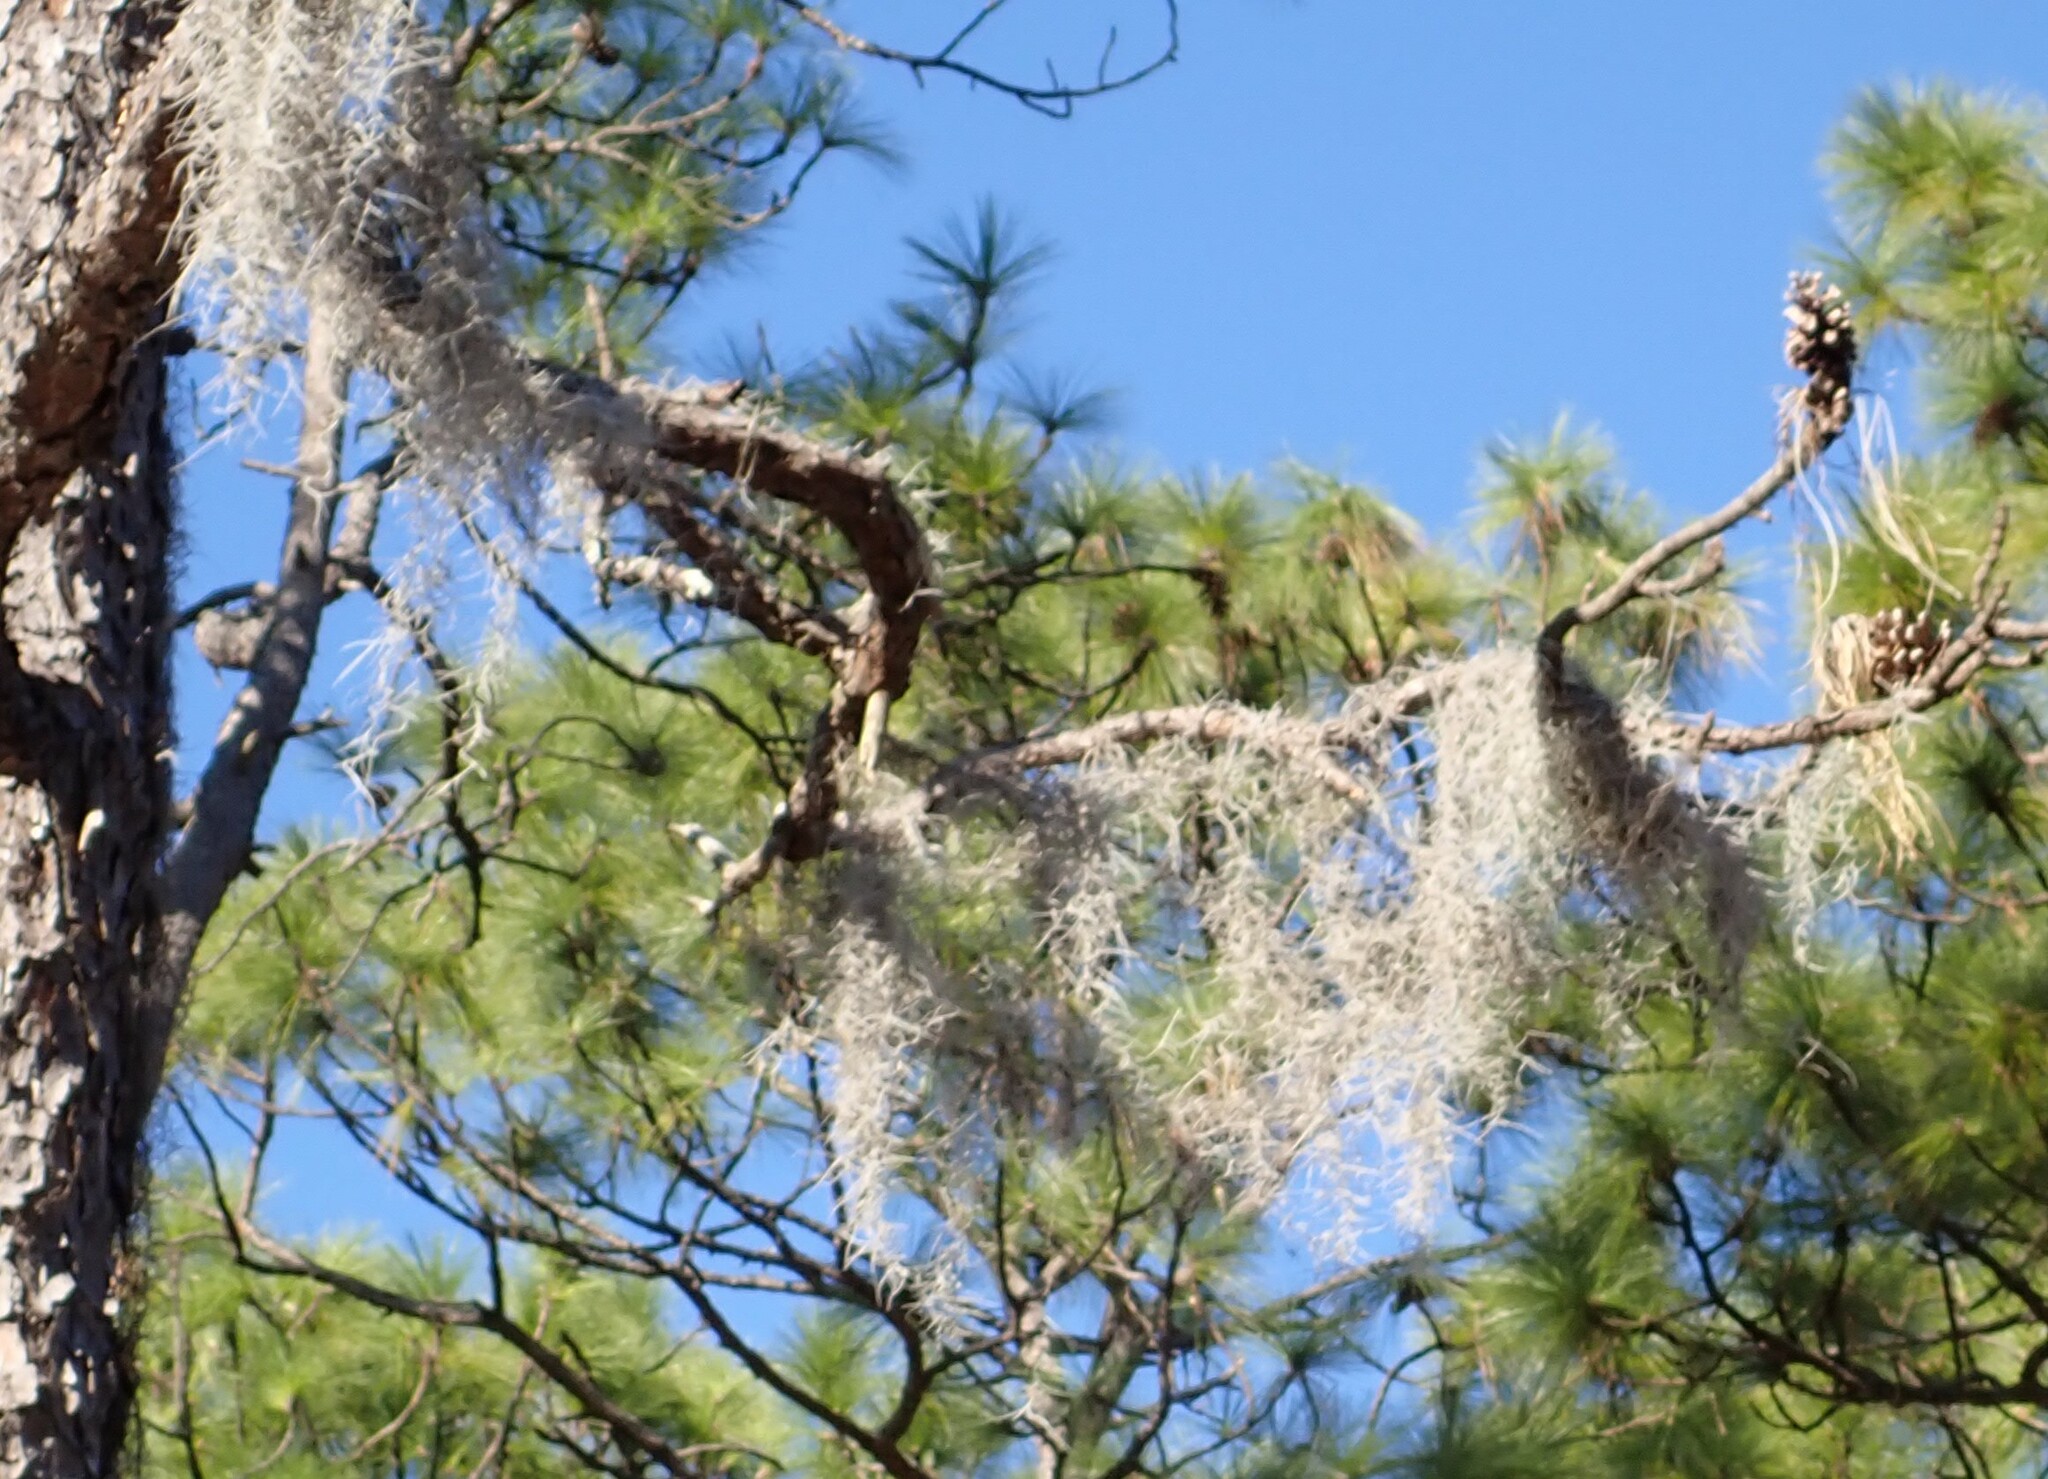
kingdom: Plantae
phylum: Tracheophyta
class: Liliopsida
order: Poales
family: Bromeliaceae
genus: Tillandsia
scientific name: Tillandsia usneoides
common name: Spanish moss
